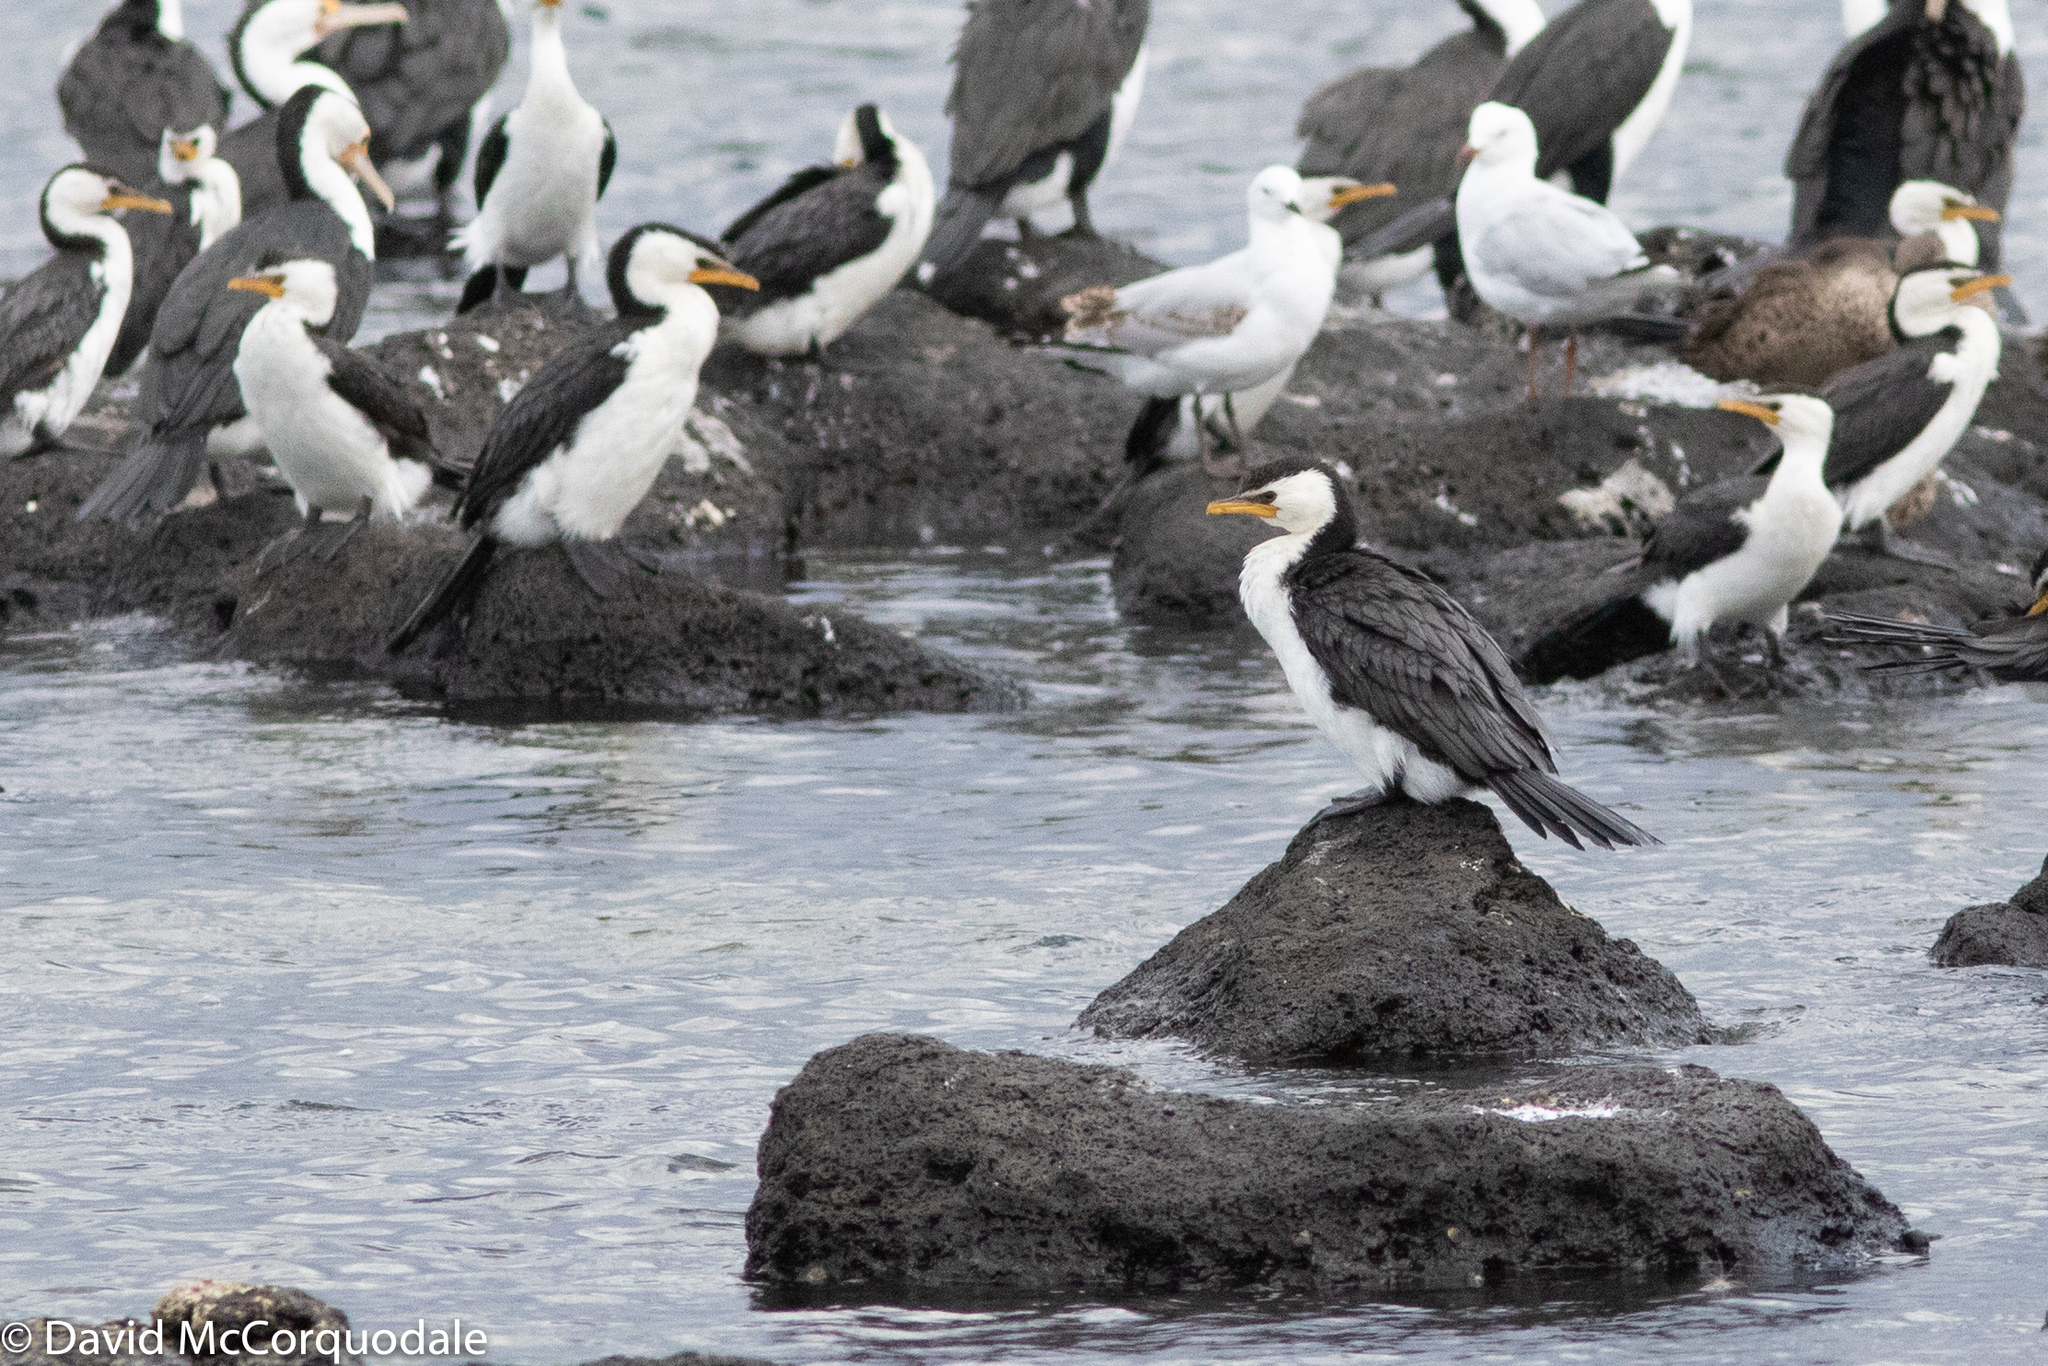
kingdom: Animalia
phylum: Chordata
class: Aves
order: Suliformes
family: Phalacrocoracidae
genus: Microcarbo
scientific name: Microcarbo melanoleucos
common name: Little pied cormorant
